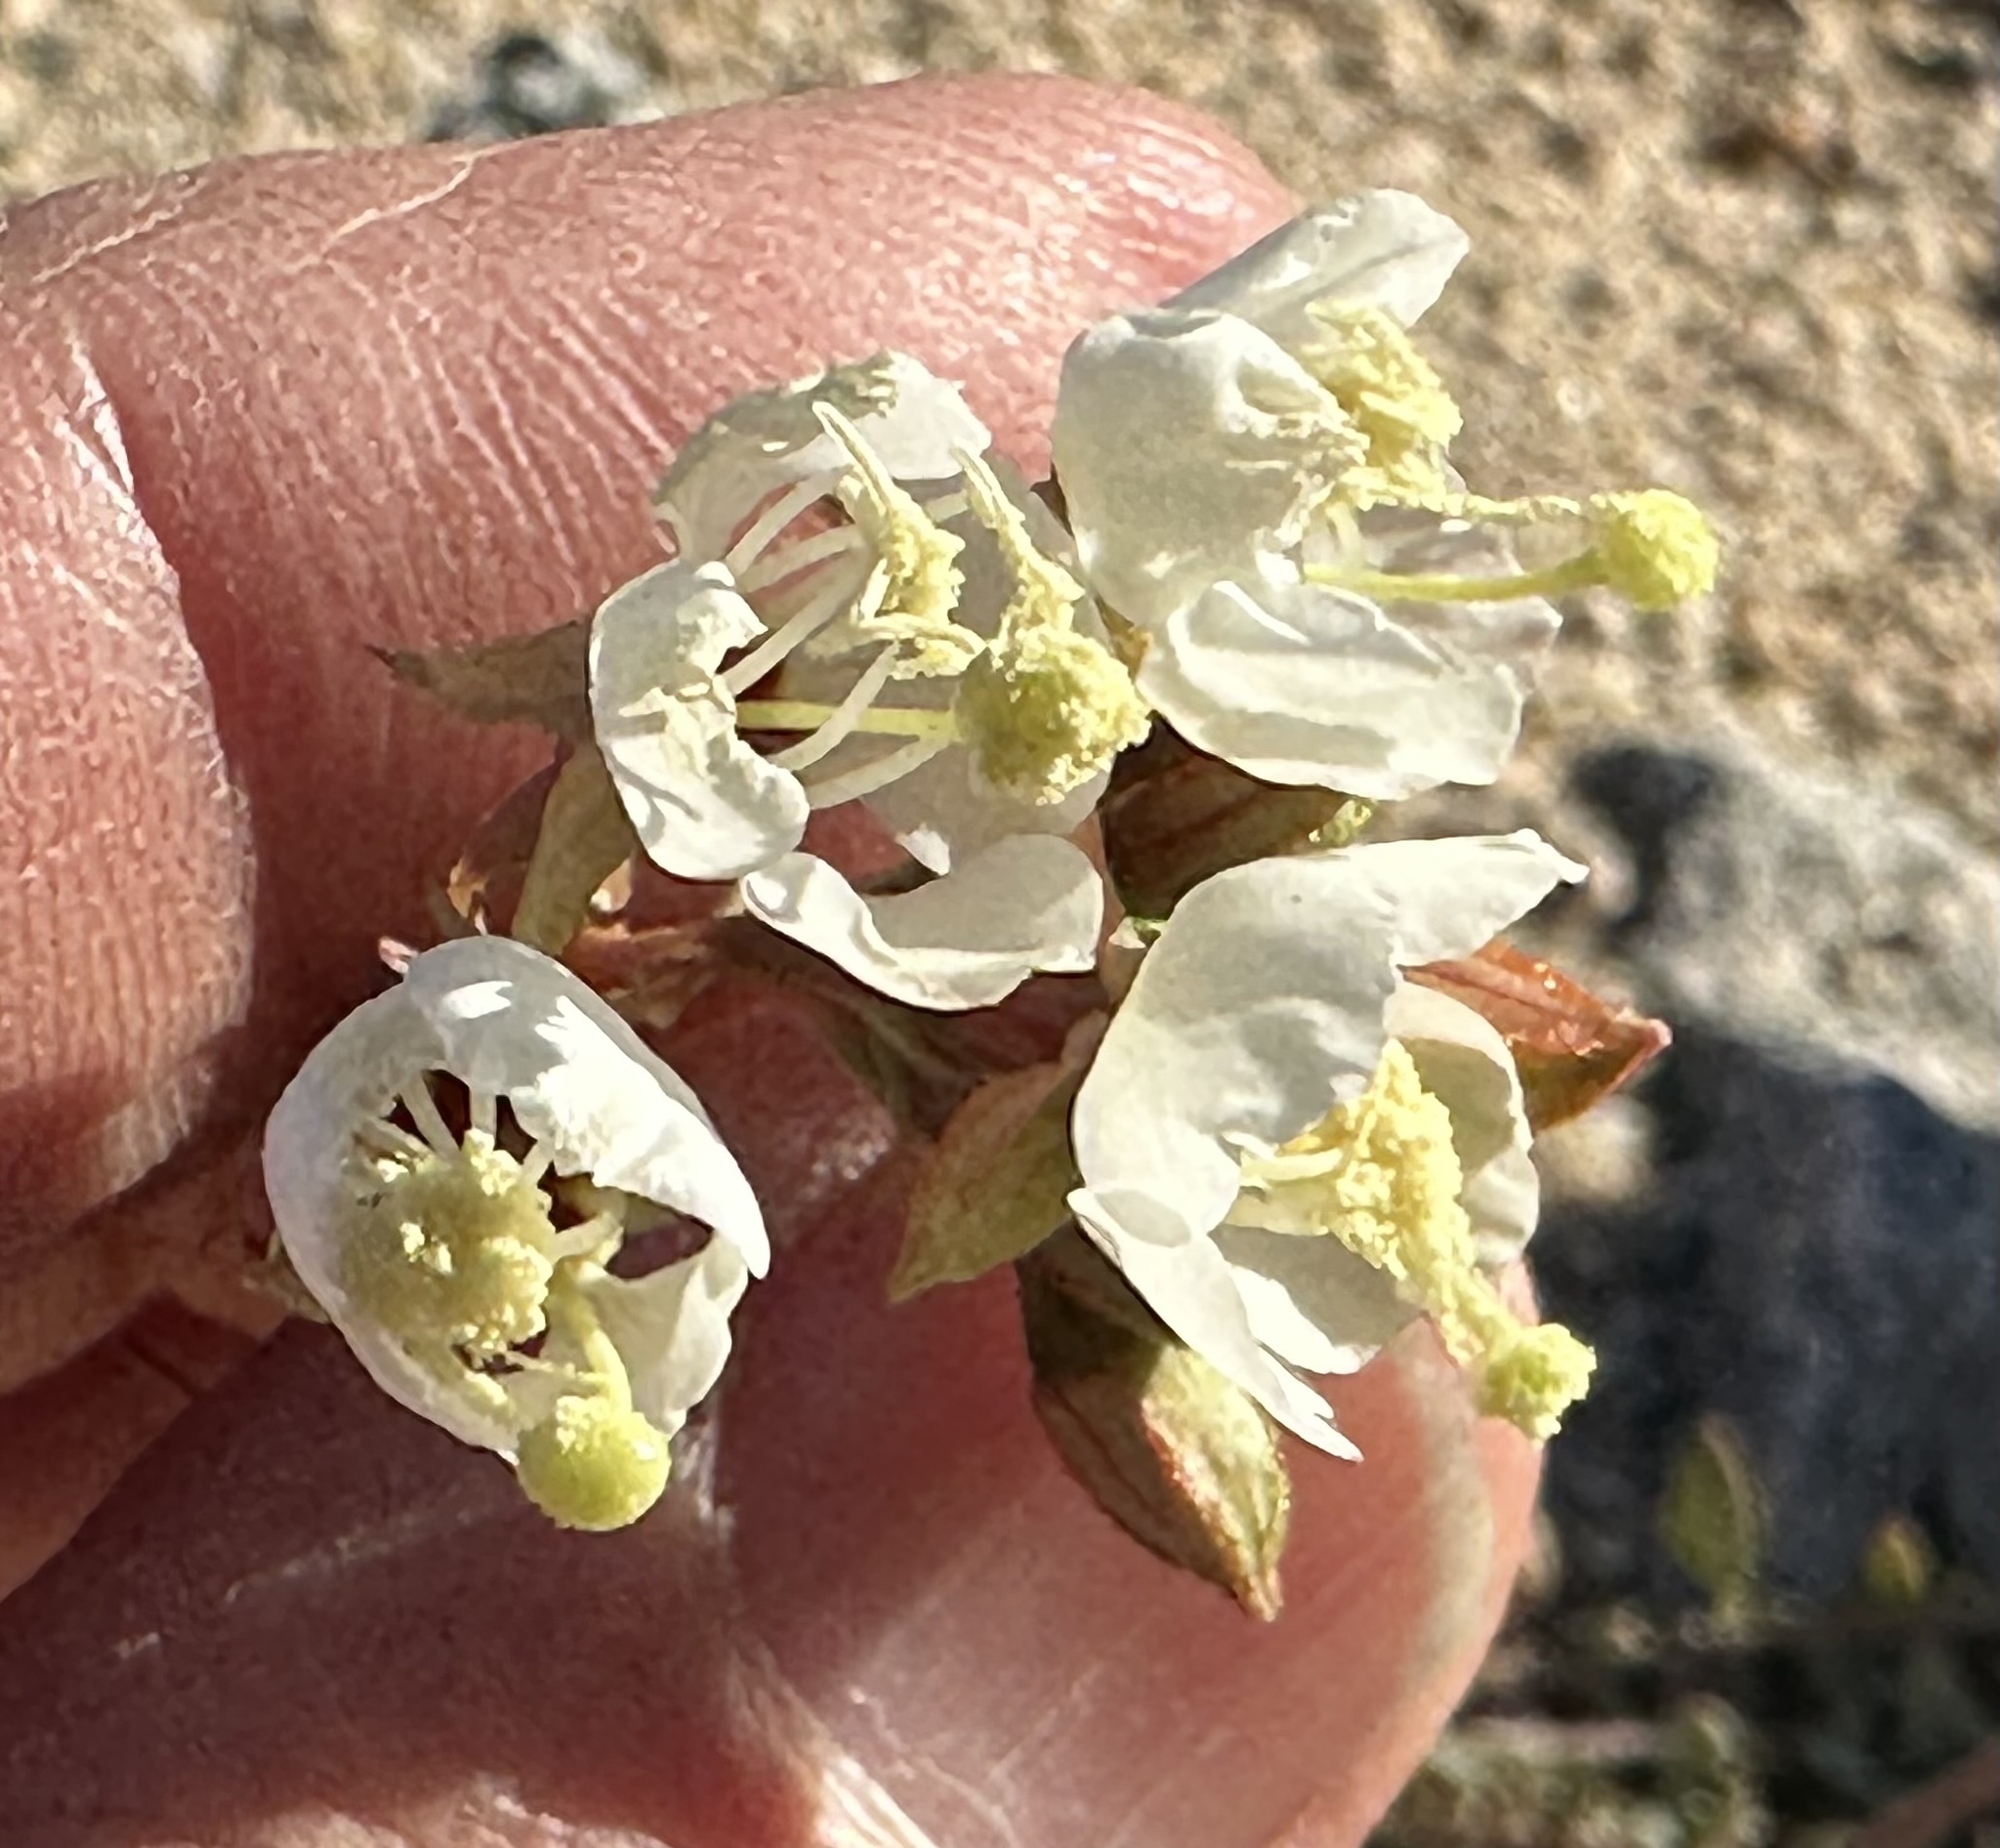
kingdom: Plantae
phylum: Tracheophyta
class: Magnoliopsida
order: Myrtales
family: Onagraceae
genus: Chylismia
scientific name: Chylismia claviformis
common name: Browneyes
